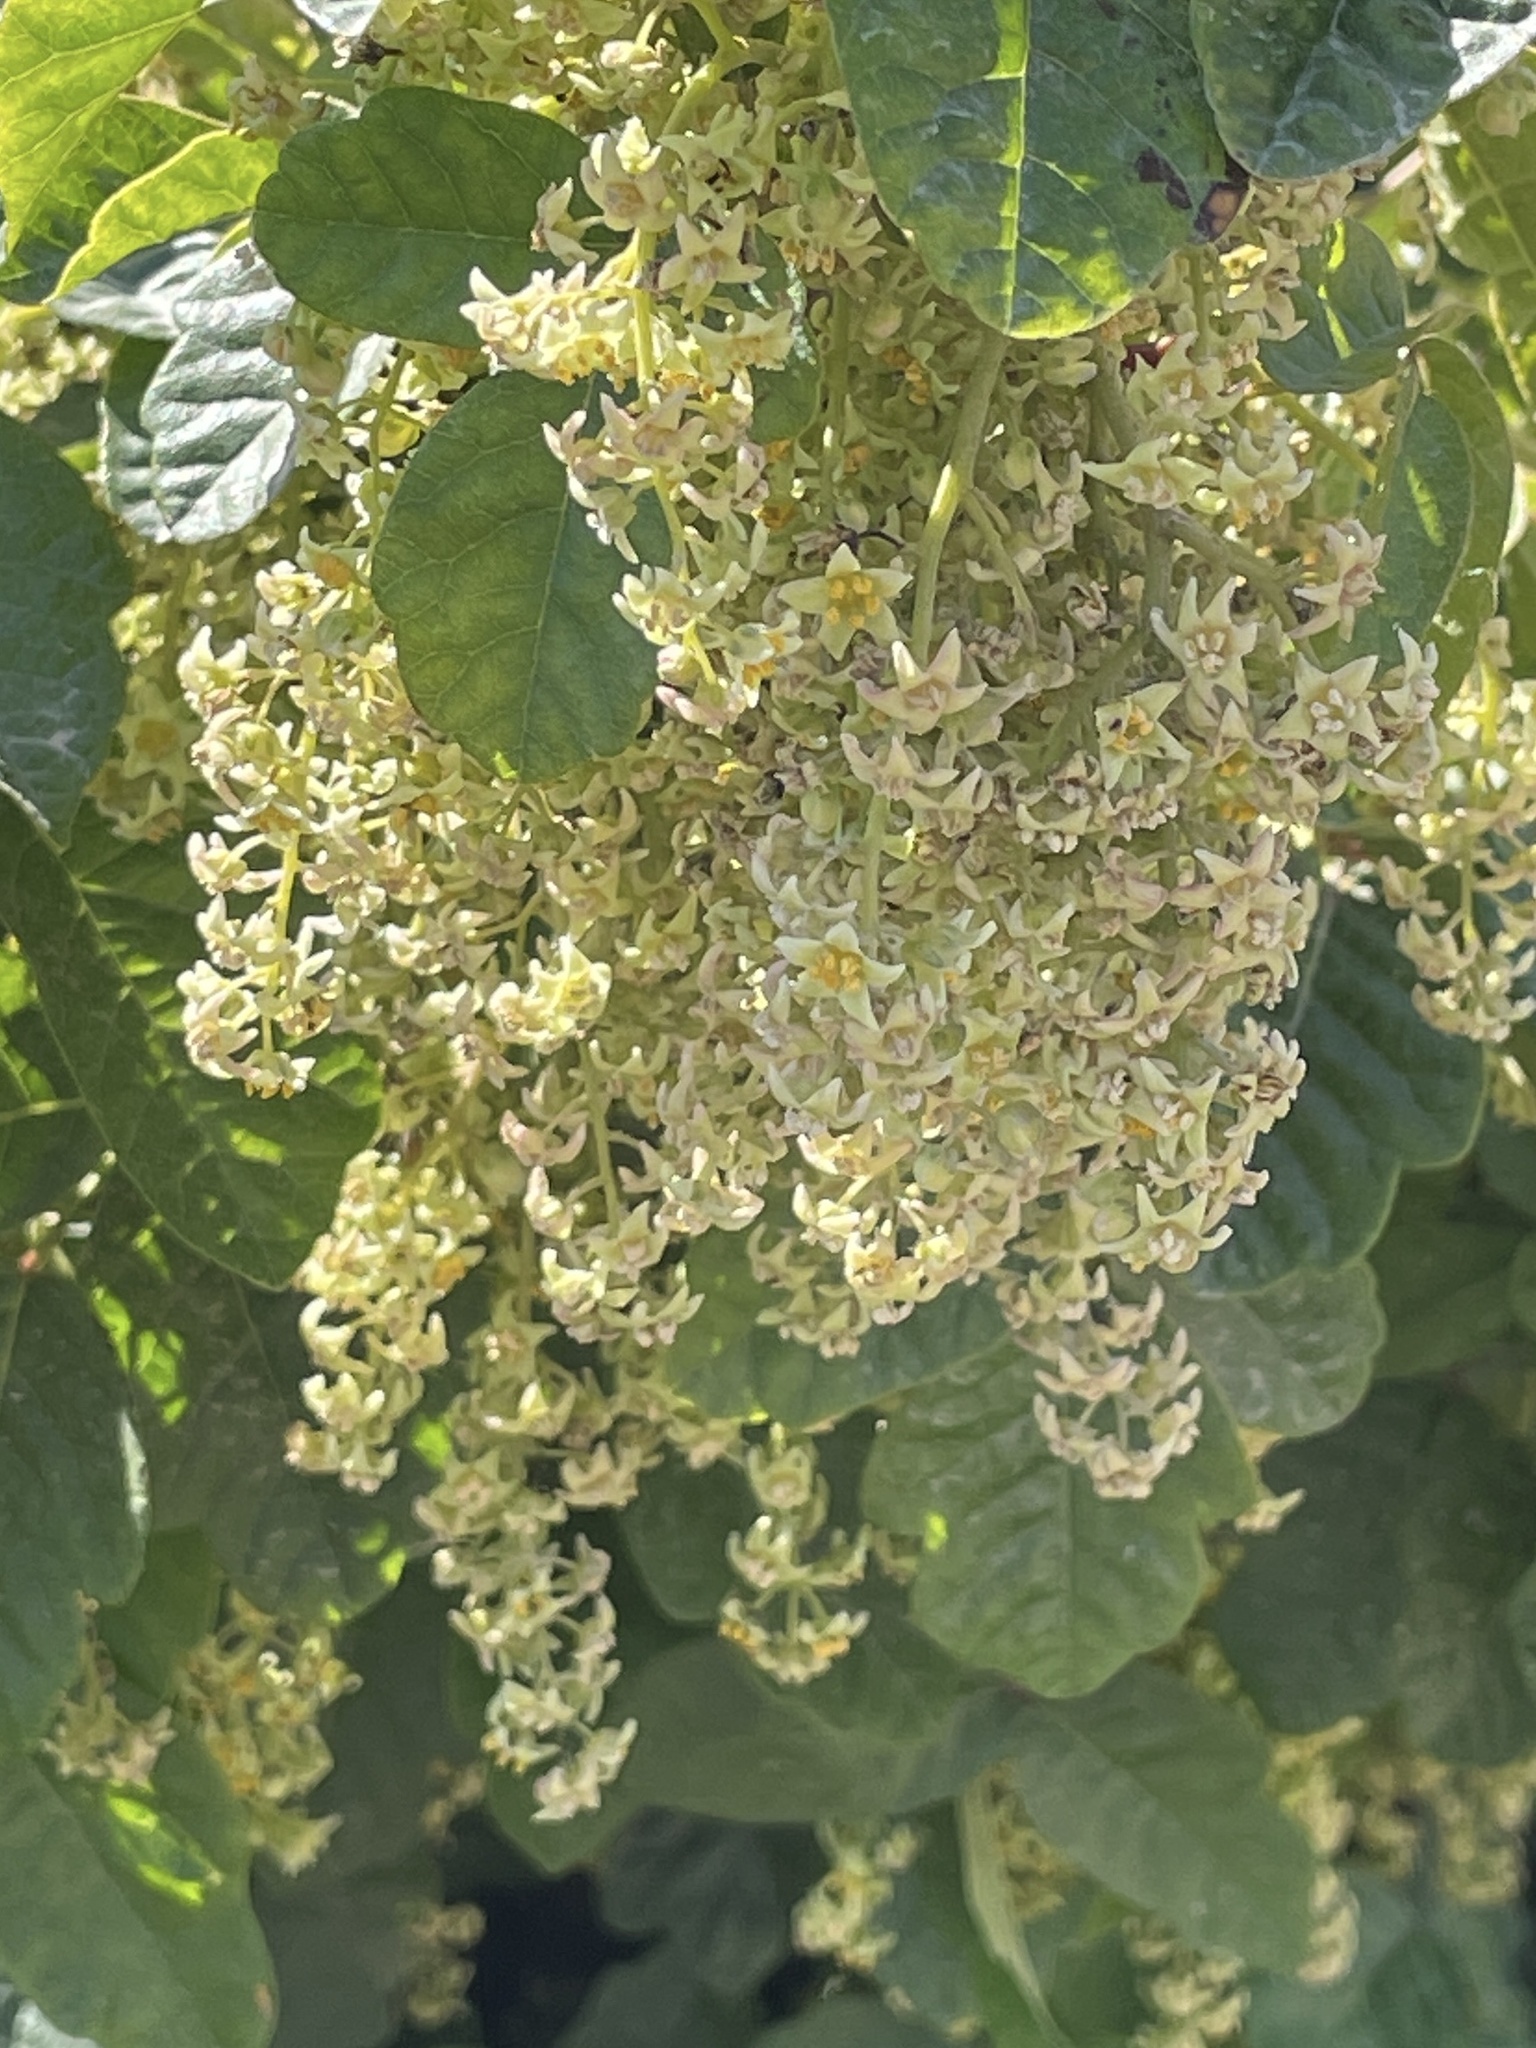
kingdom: Plantae
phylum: Tracheophyta
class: Magnoliopsida
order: Sapindales
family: Anacardiaceae
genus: Toxicodendron
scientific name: Toxicodendron diversilobum
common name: Pacific poison-oak
